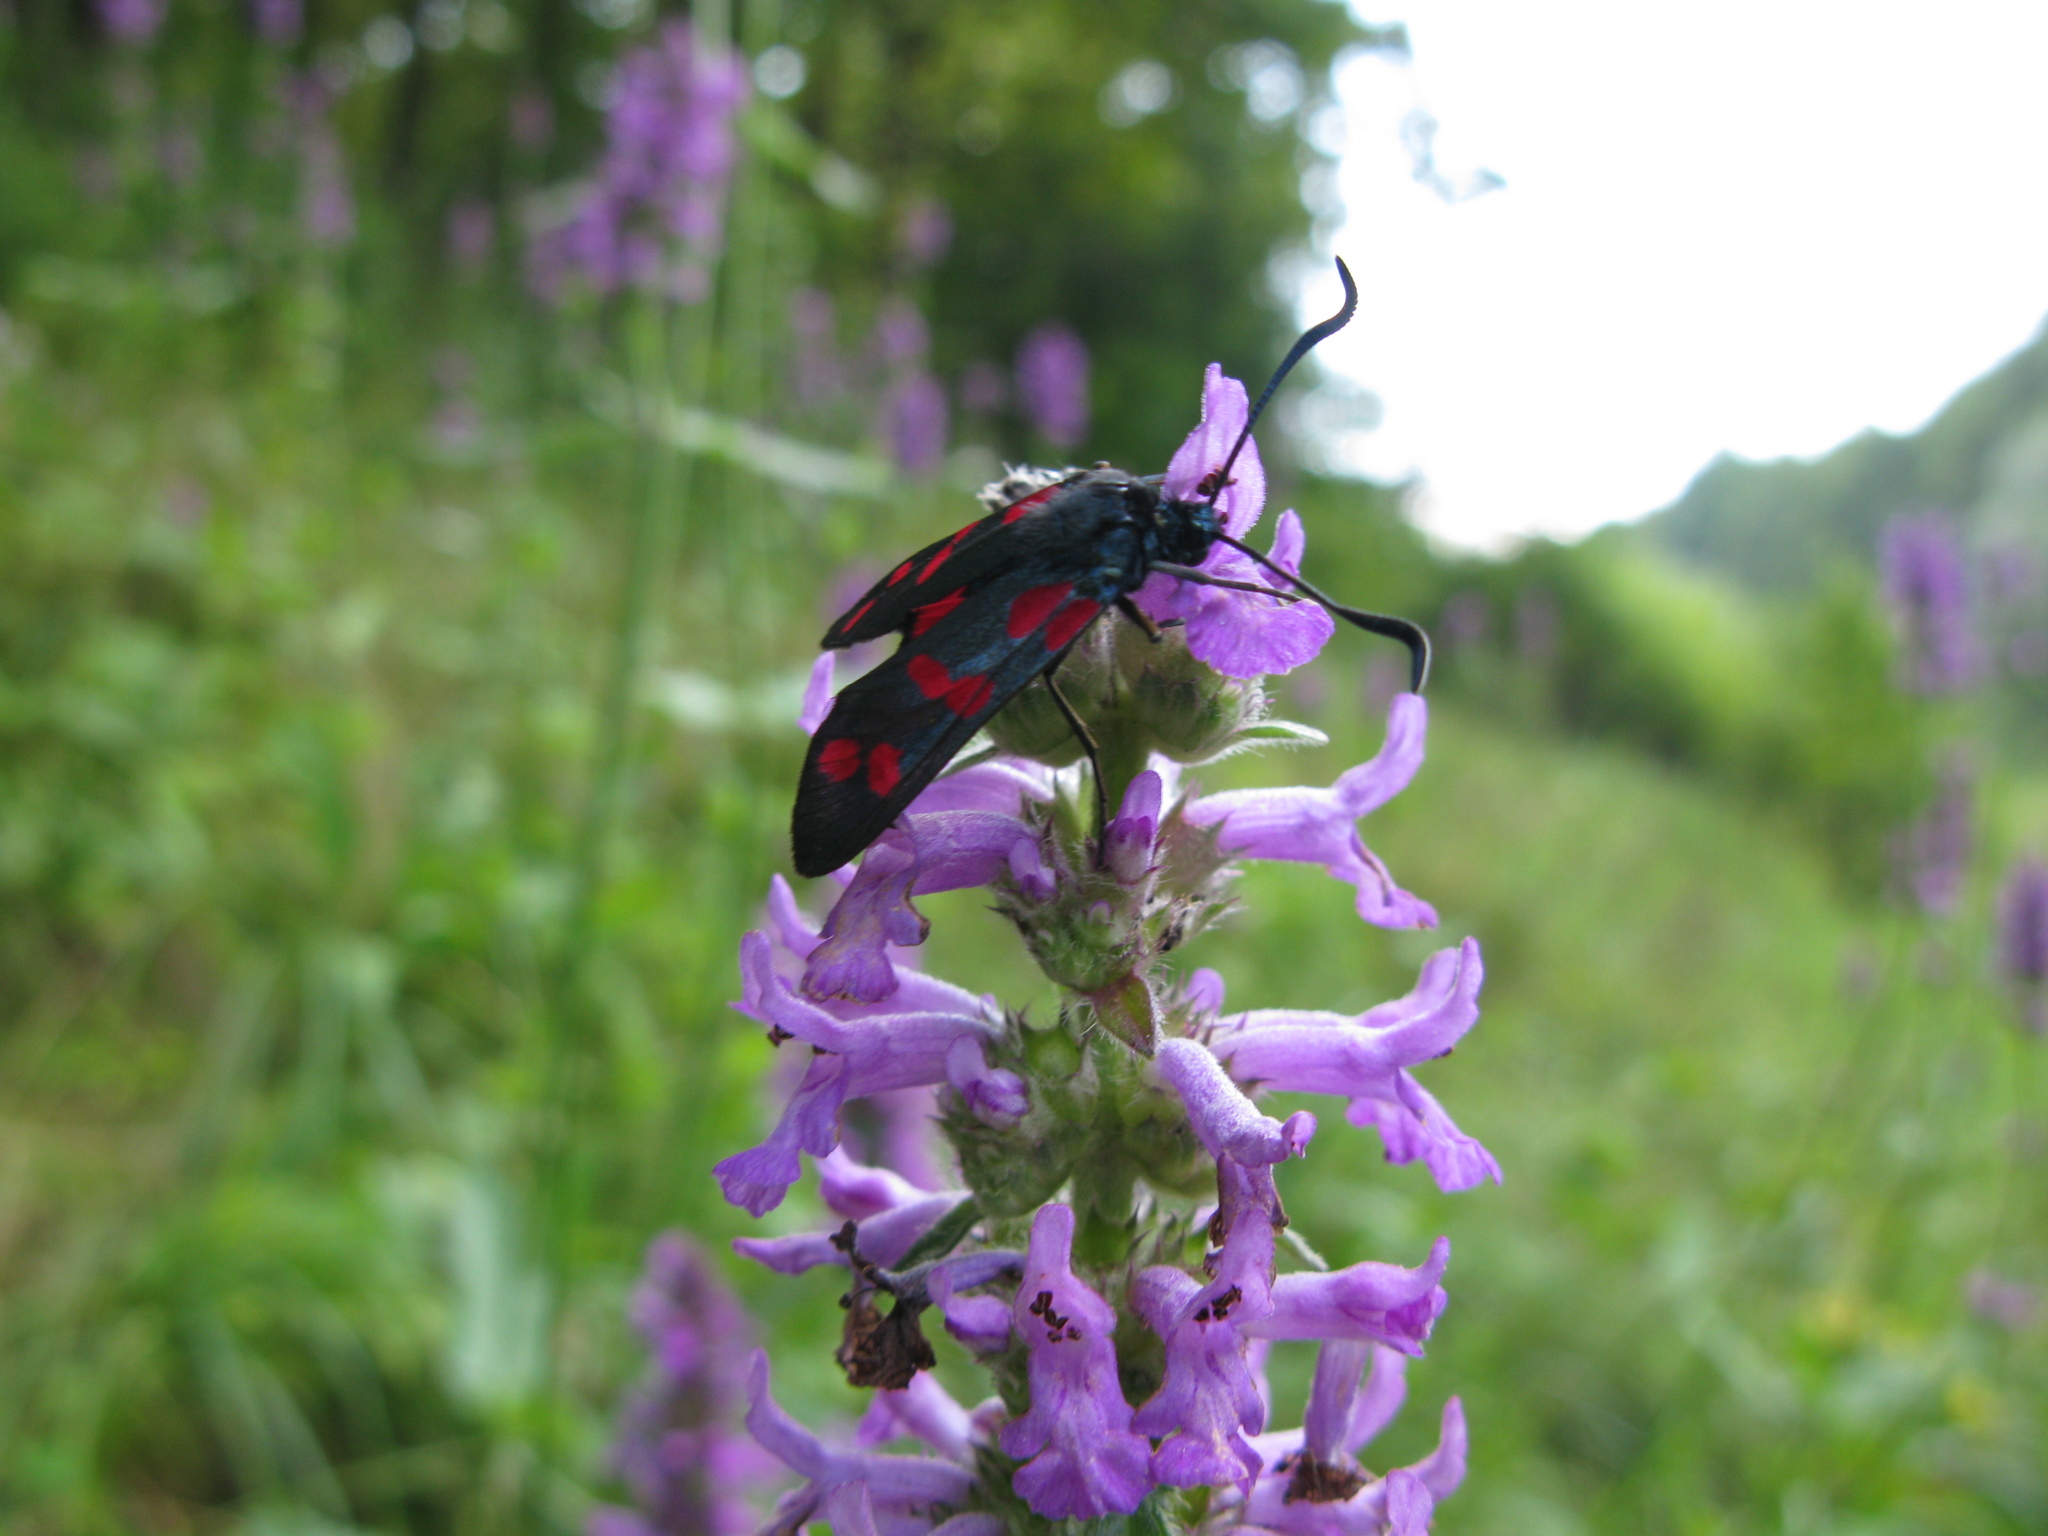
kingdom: Animalia
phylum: Arthropoda
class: Insecta
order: Lepidoptera
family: Zygaenidae
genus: Zygaena
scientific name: Zygaena filipendulae
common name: Six-spot burnet
